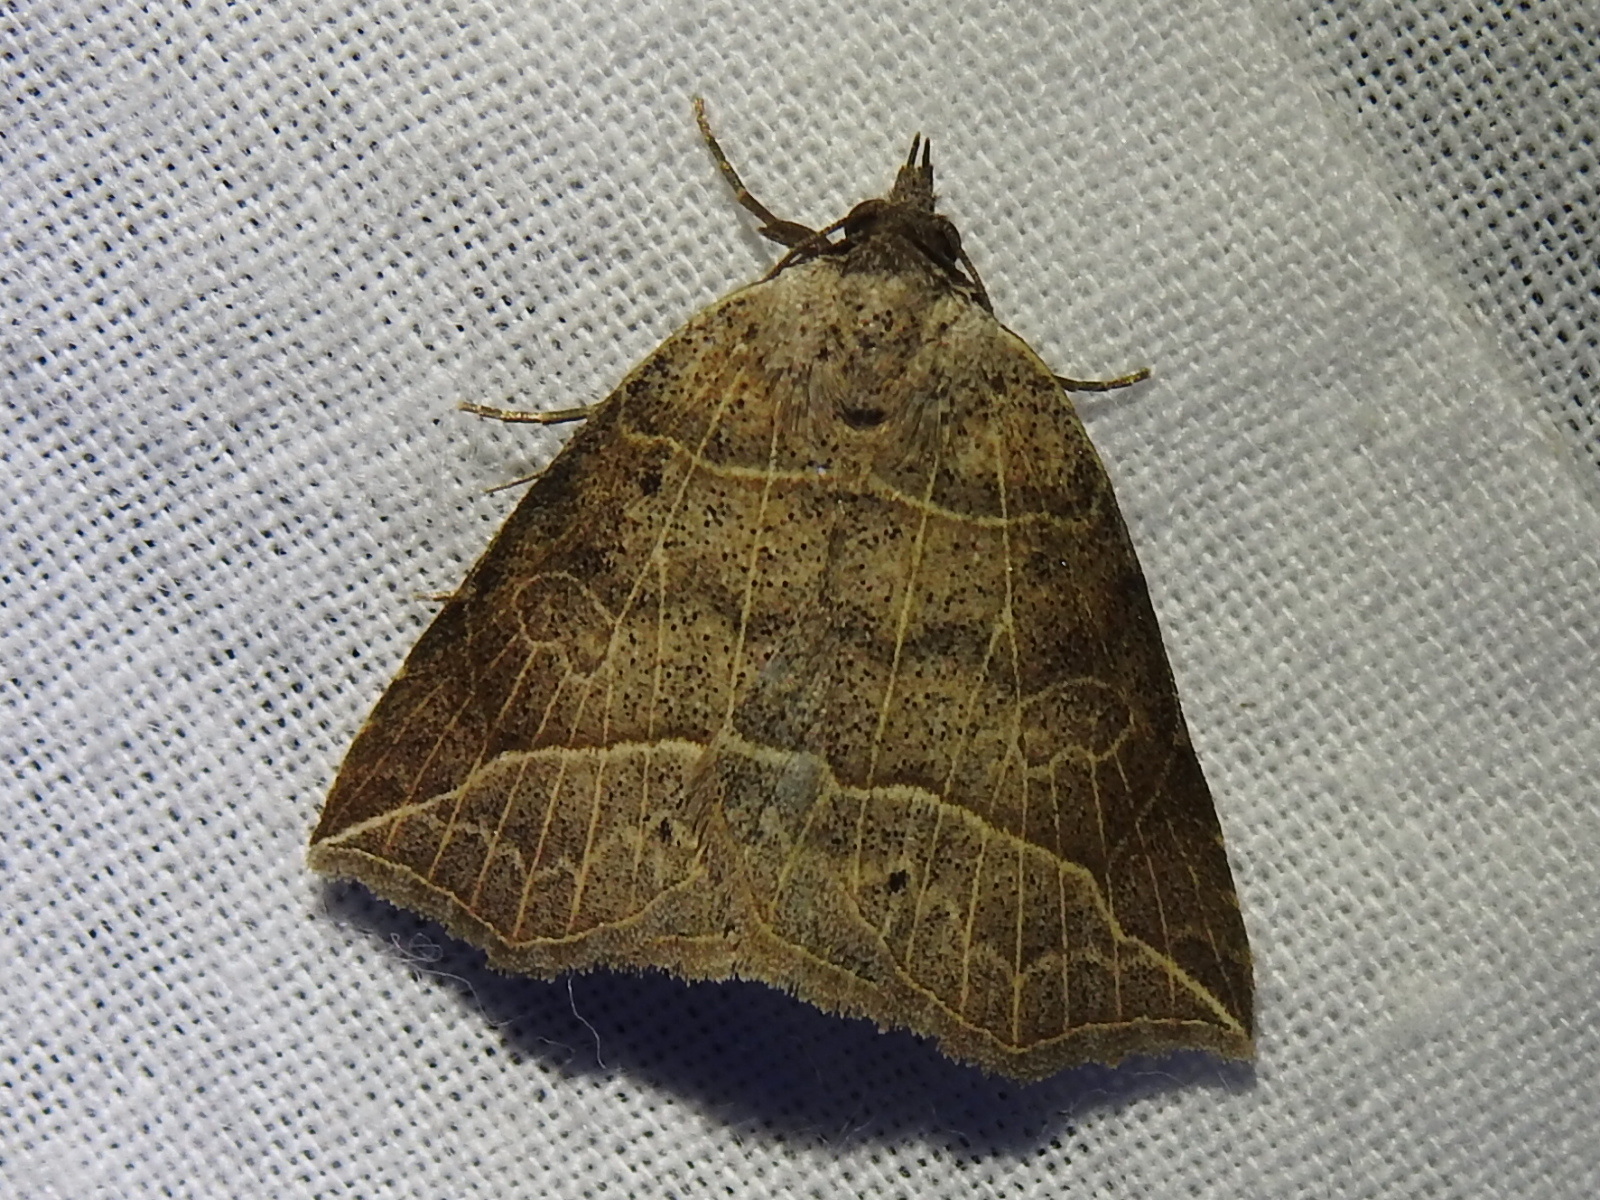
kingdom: Animalia
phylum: Arthropoda
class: Insecta
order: Lepidoptera
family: Erebidae
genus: Isogona
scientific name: Isogona tenuis
